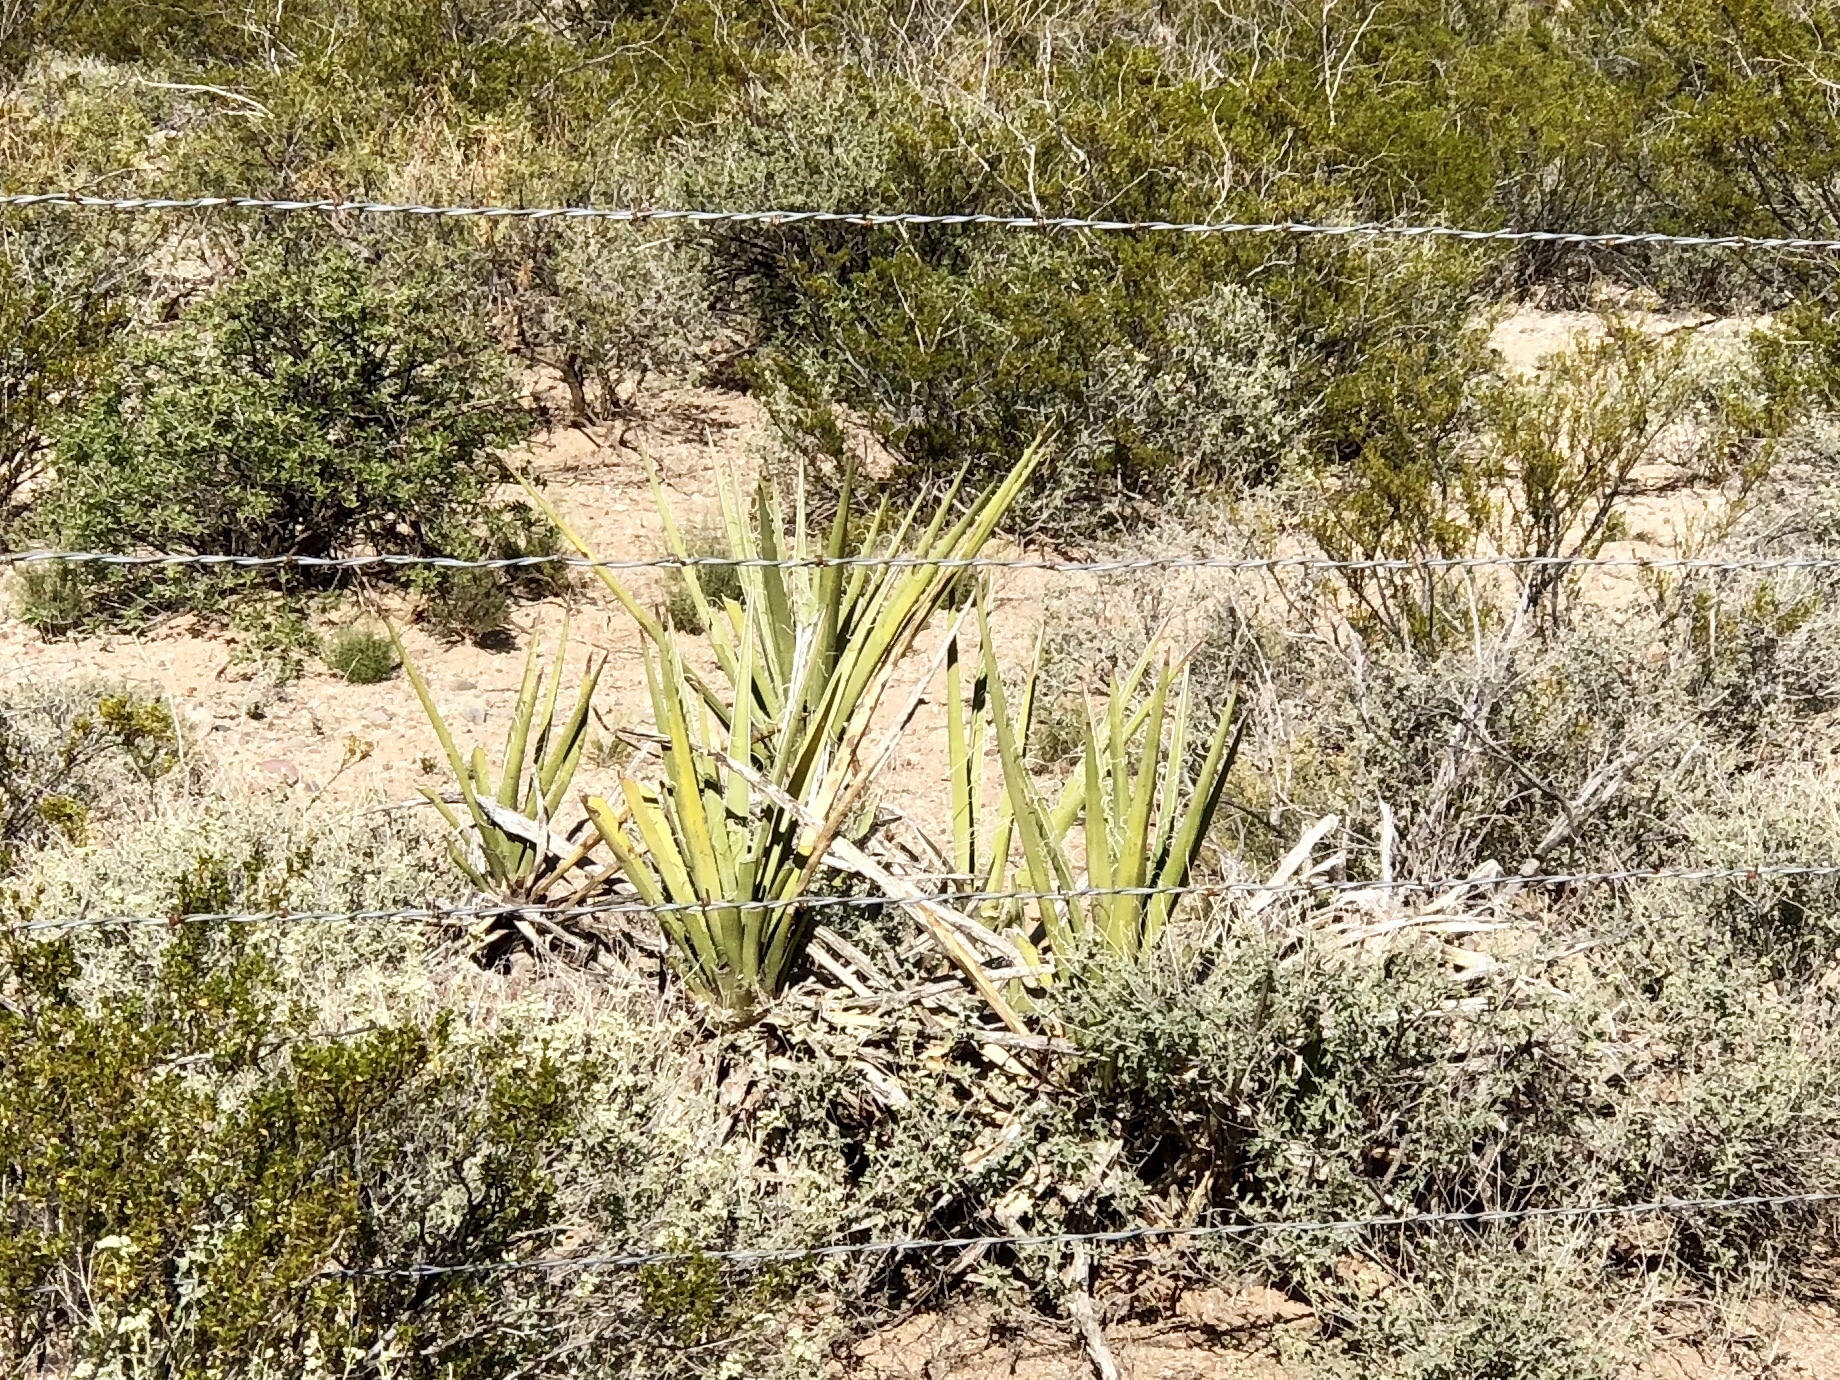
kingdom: Plantae
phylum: Tracheophyta
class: Liliopsida
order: Asparagales
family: Asparagaceae
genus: Yucca
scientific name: Yucca baccata
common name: Banana yucca
